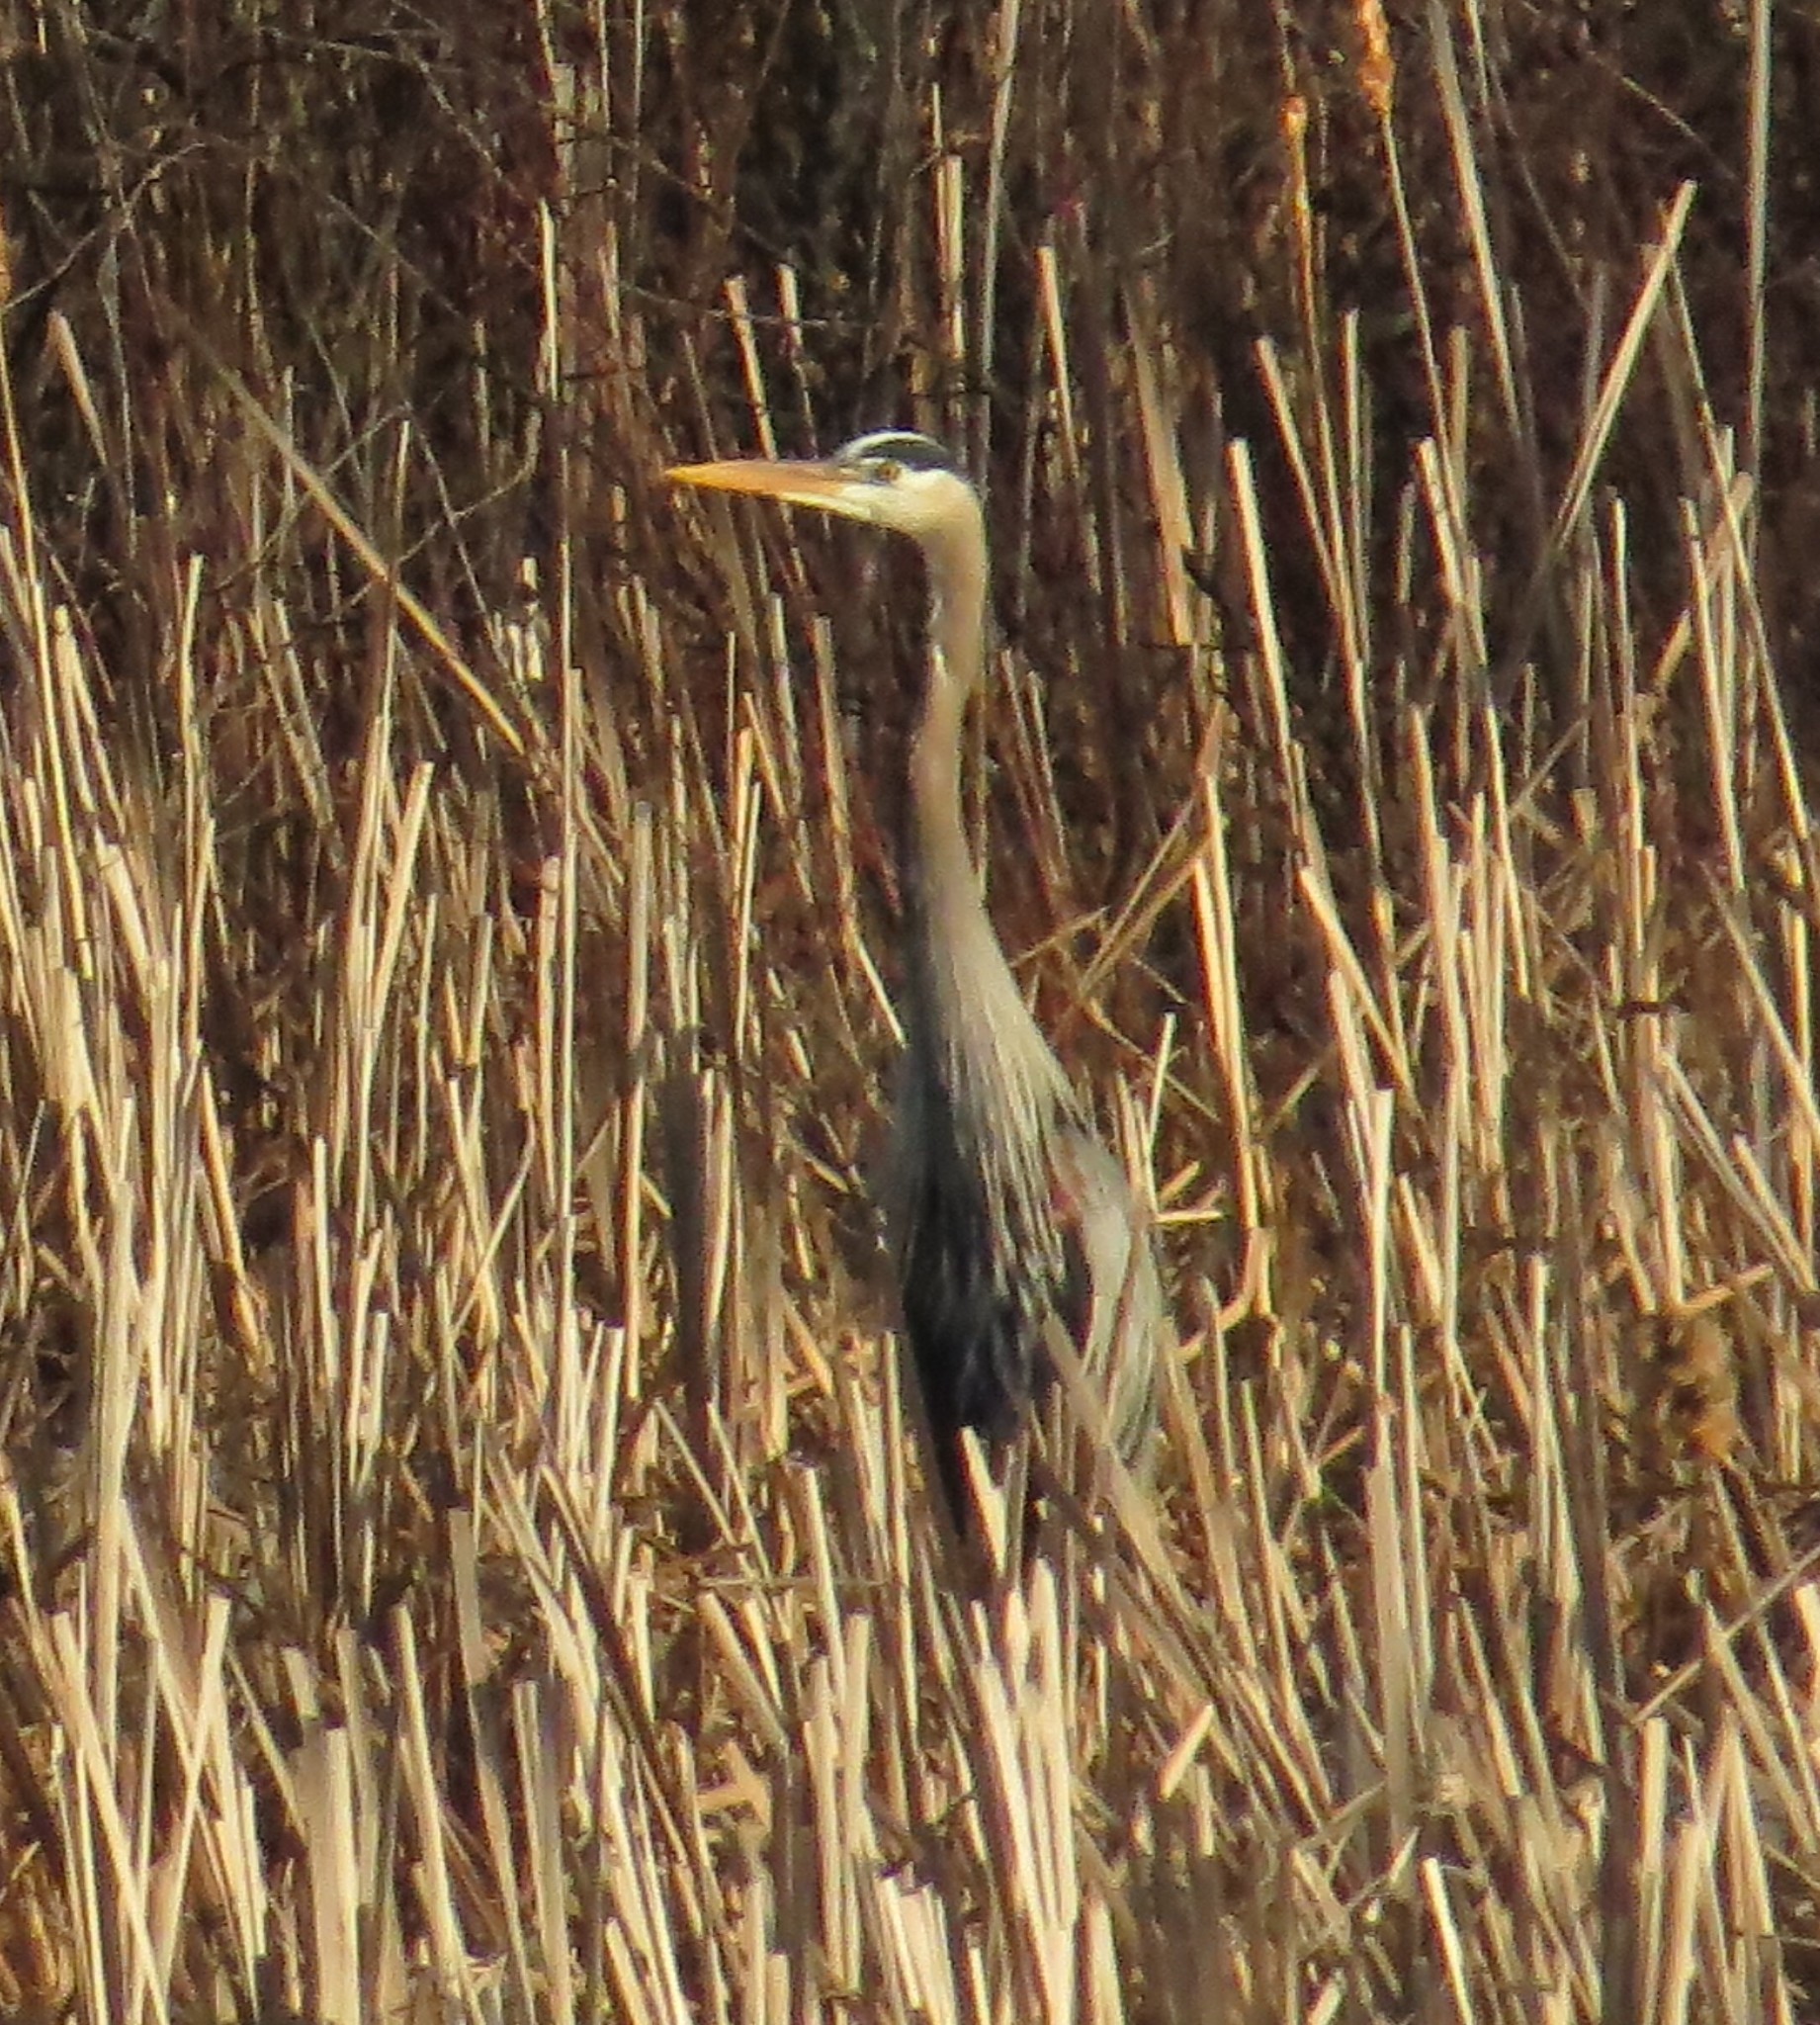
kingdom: Animalia
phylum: Chordata
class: Aves
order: Pelecaniformes
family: Ardeidae
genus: Ardea
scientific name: Ardea herodias
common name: Great blue heron
